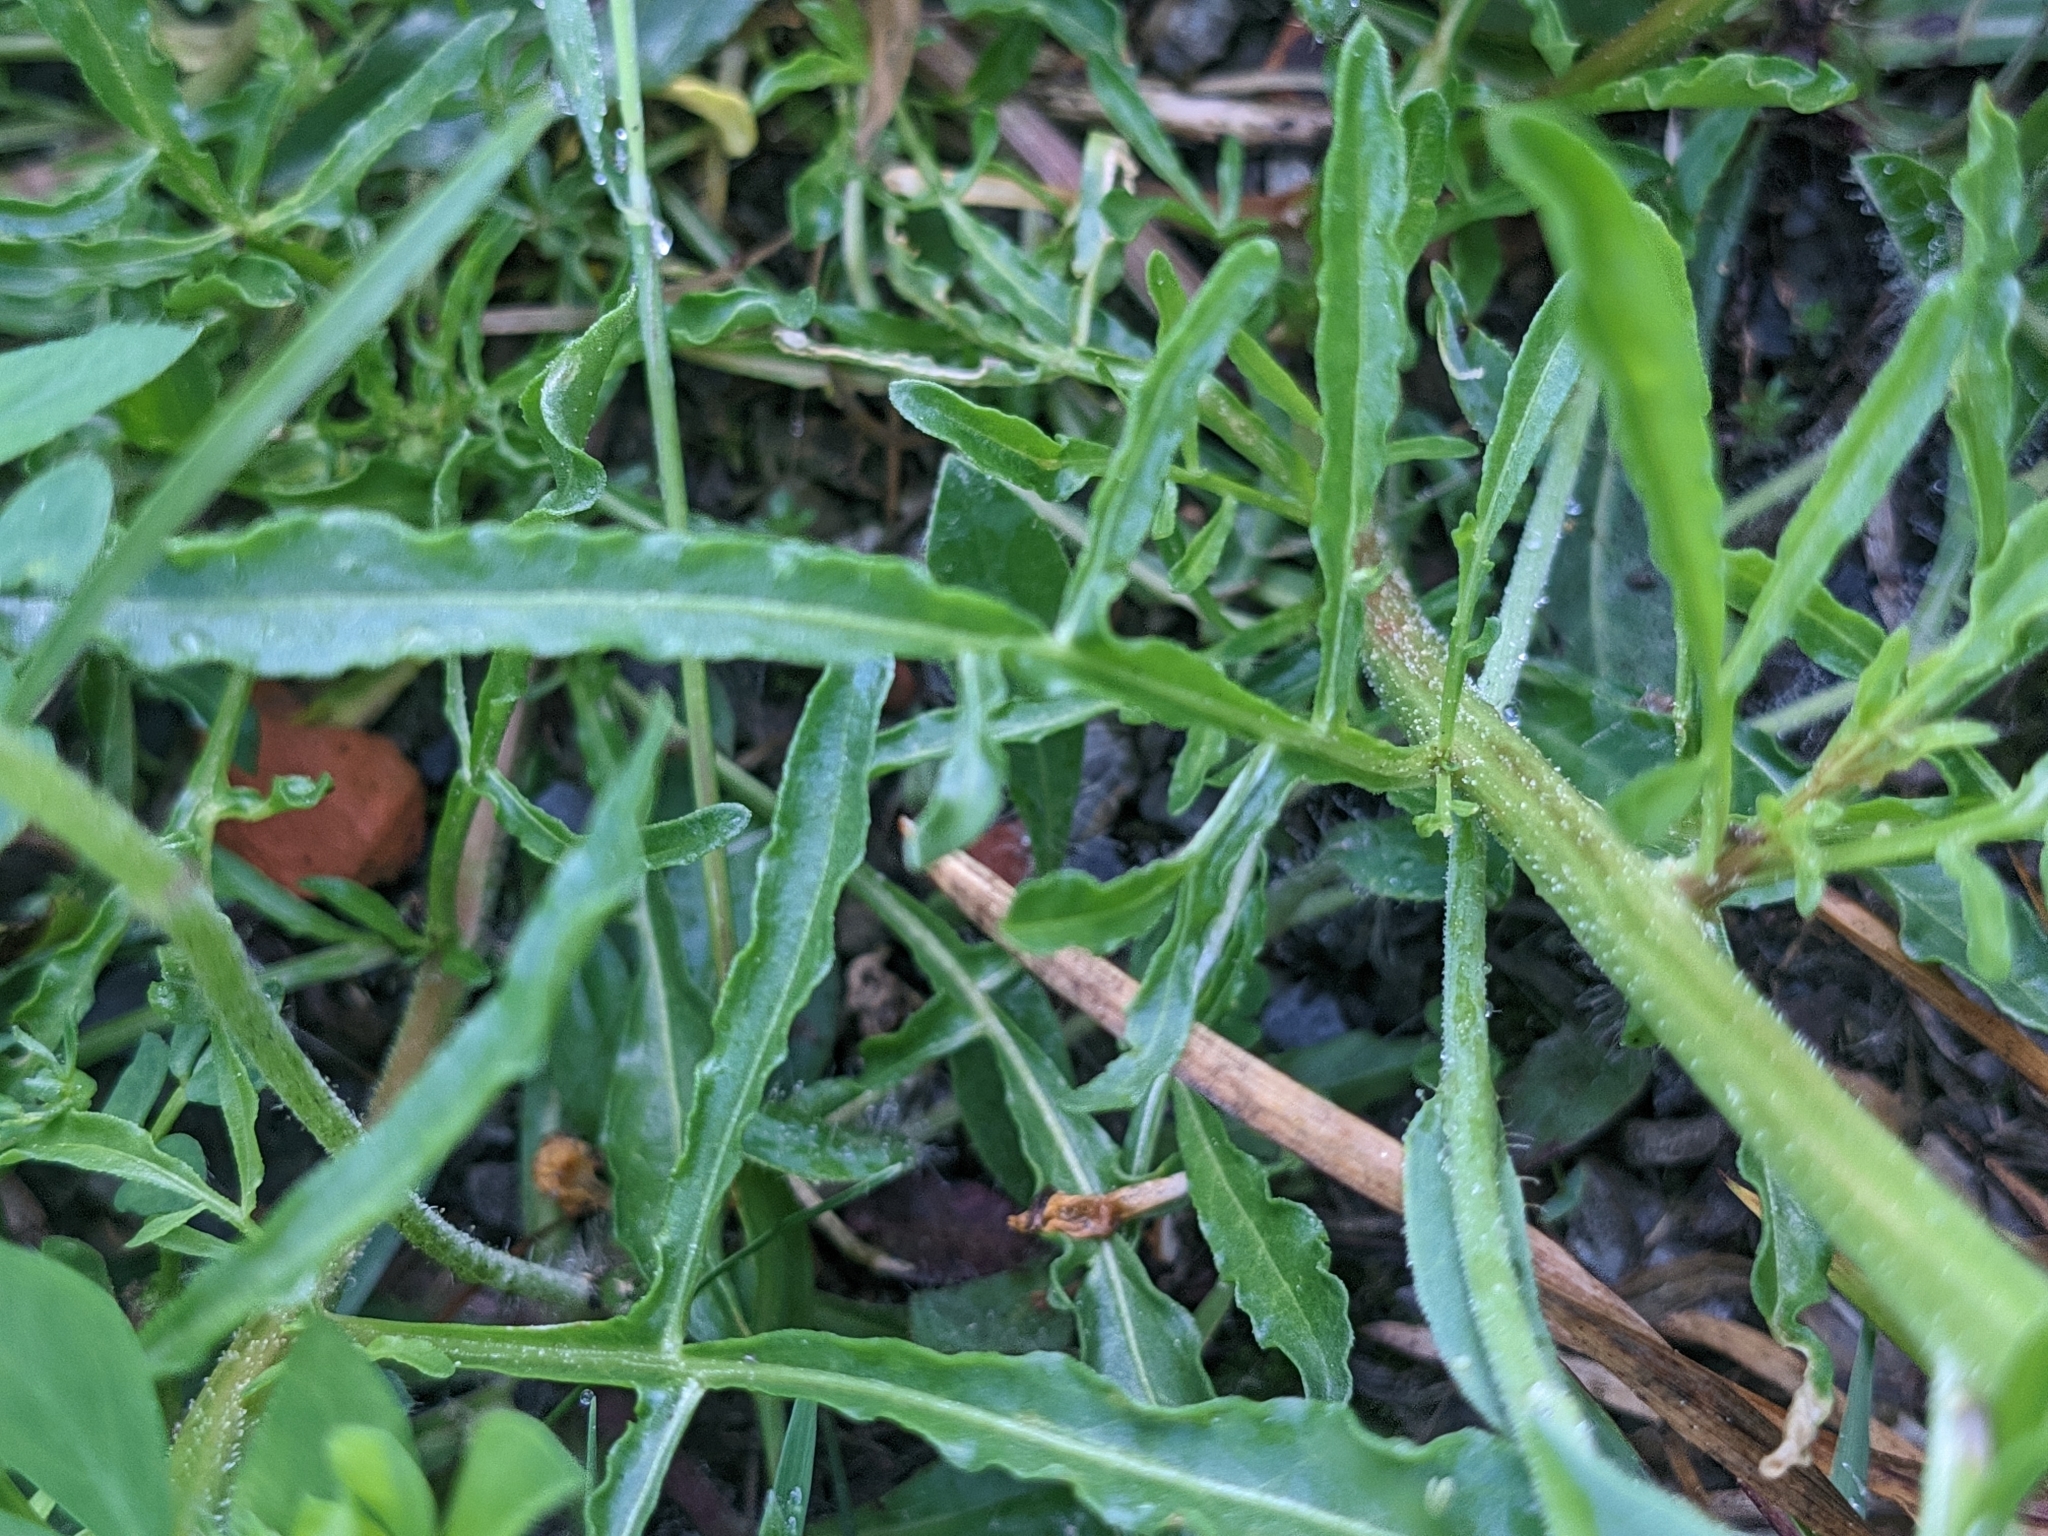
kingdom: Plantae
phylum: Tracheophyta
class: Magnoliopsida
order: Brassicales
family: Resedaceae
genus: Reseda
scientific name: Reseda lutea
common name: Wild mignonette
